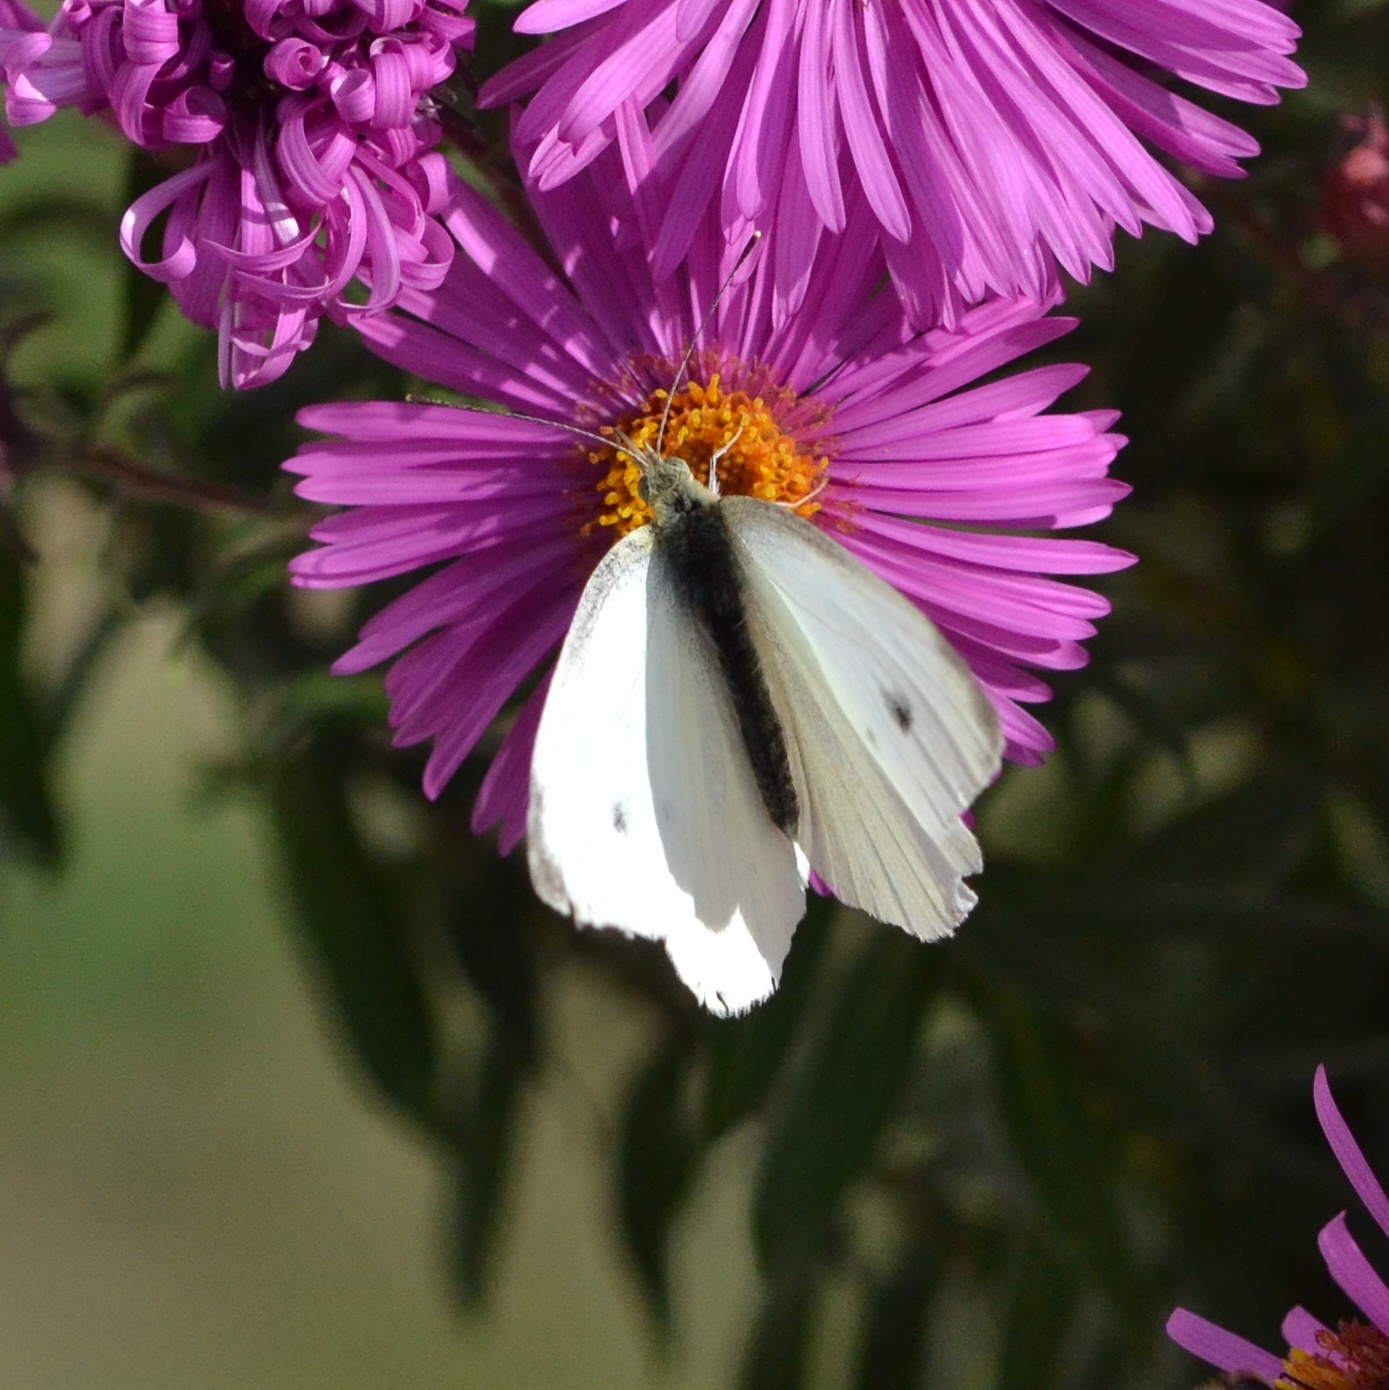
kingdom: Animalia
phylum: Arthropoda
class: Insecta
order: Lepidoptera
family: Pieridae
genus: Pieris
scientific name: Pieris rapae
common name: Small white
